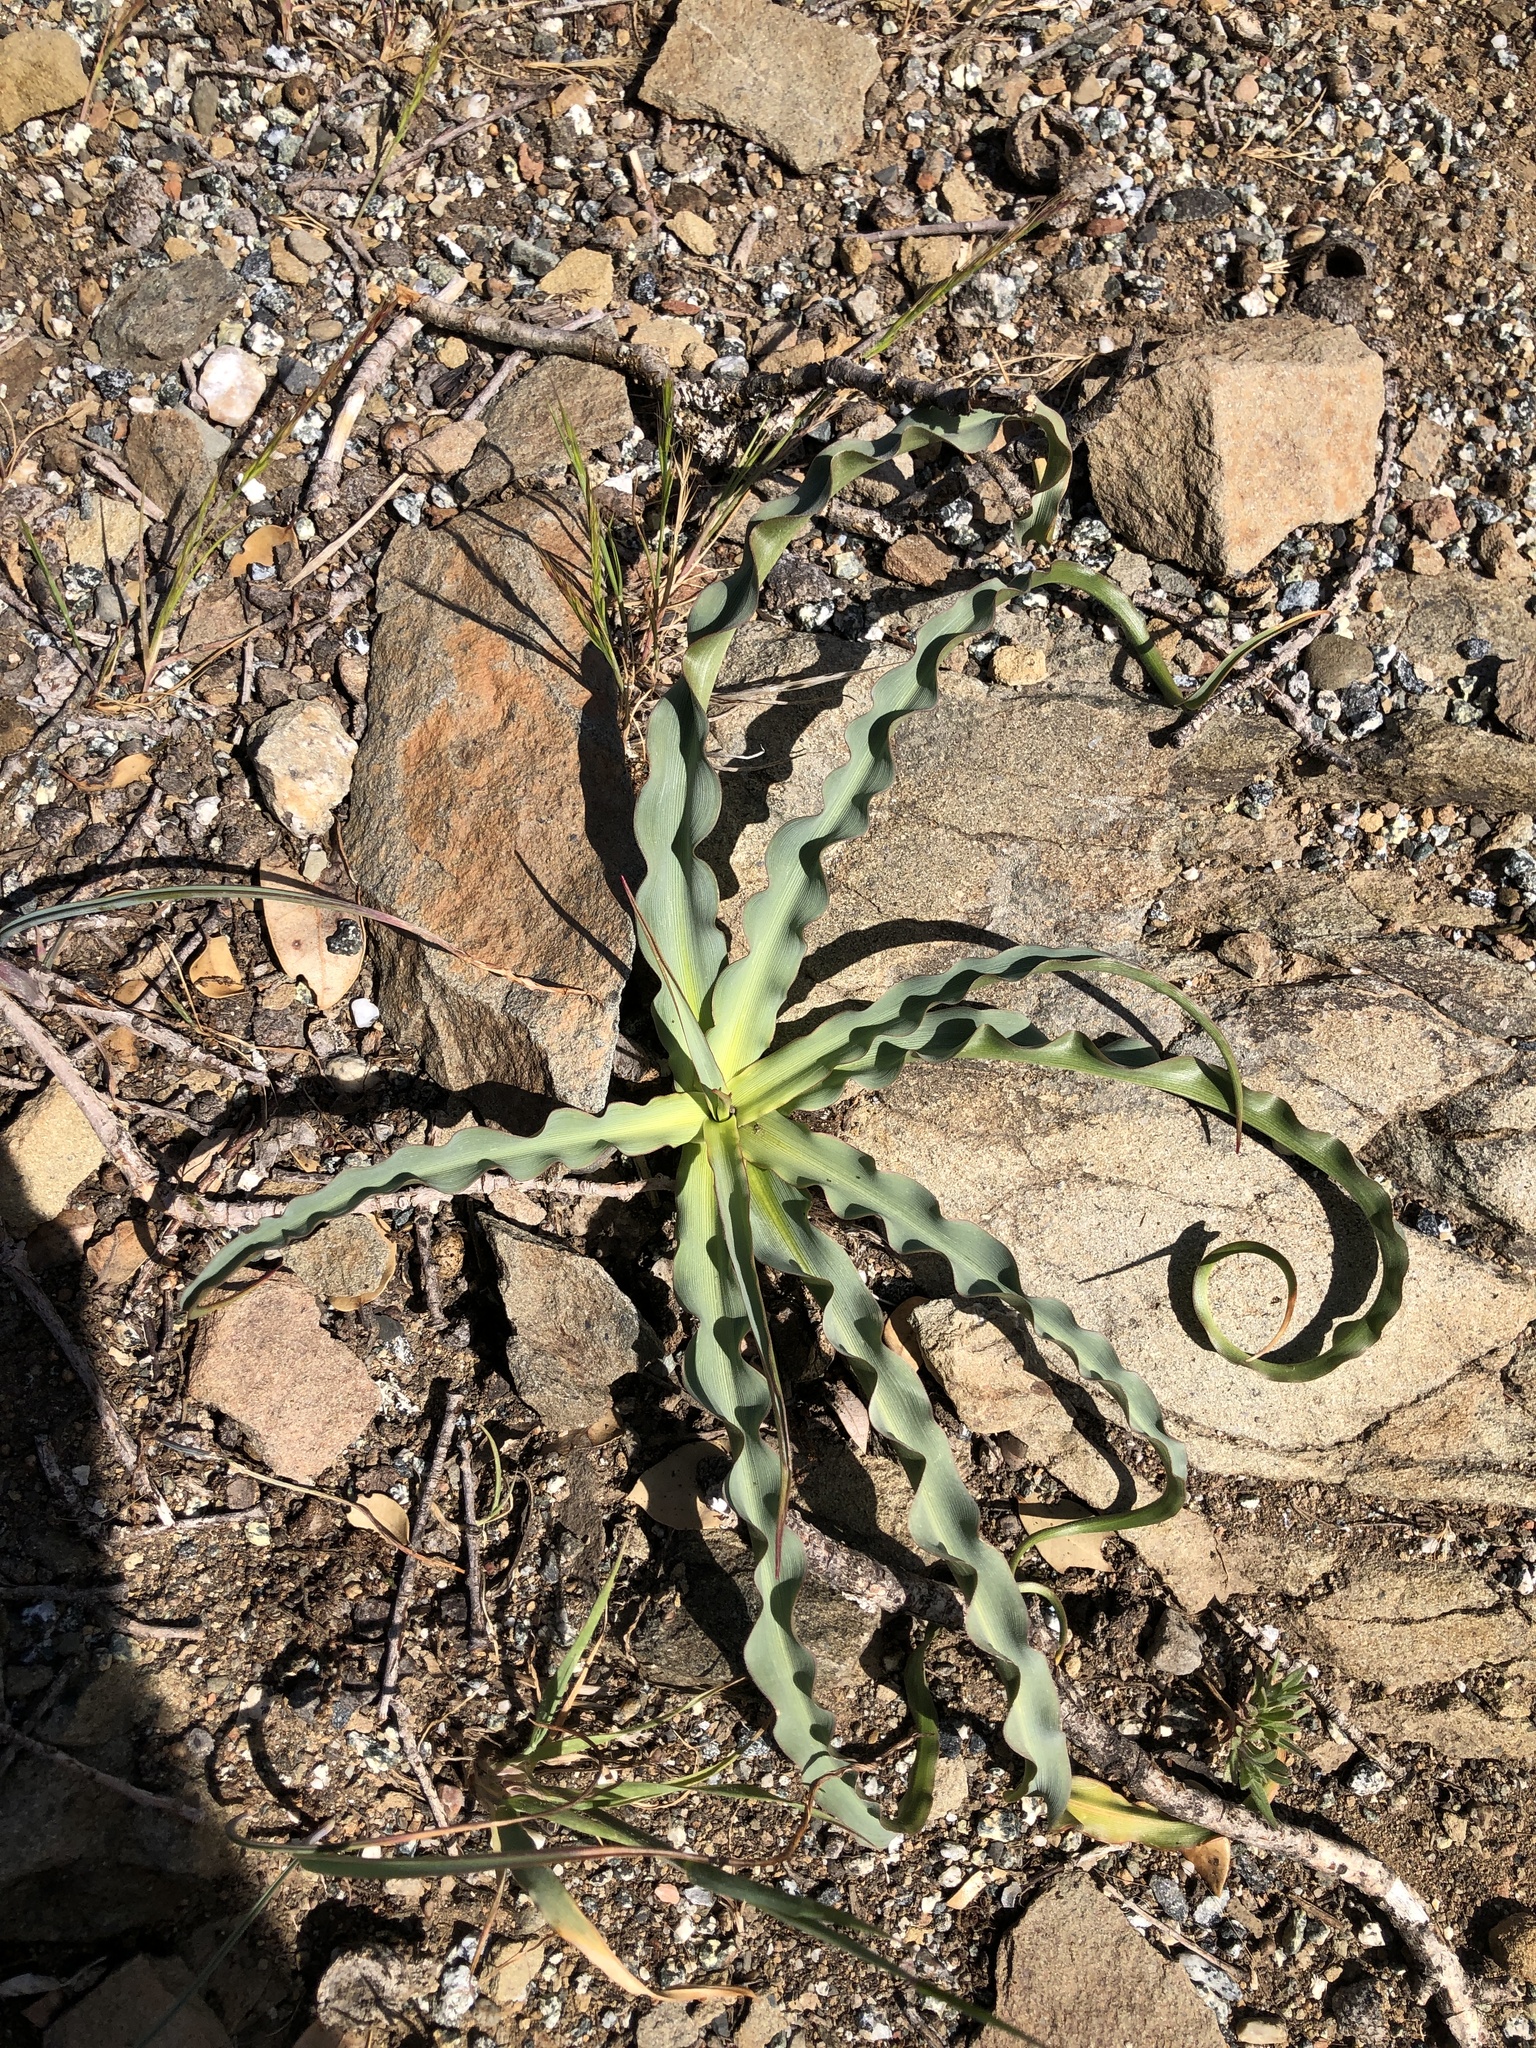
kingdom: Plantae
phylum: Tracheophyta
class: Liliopsida
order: Asparagales
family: Asparagaceae
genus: Chlorogalum
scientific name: Chlorogalum pomeridianum
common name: Amole
